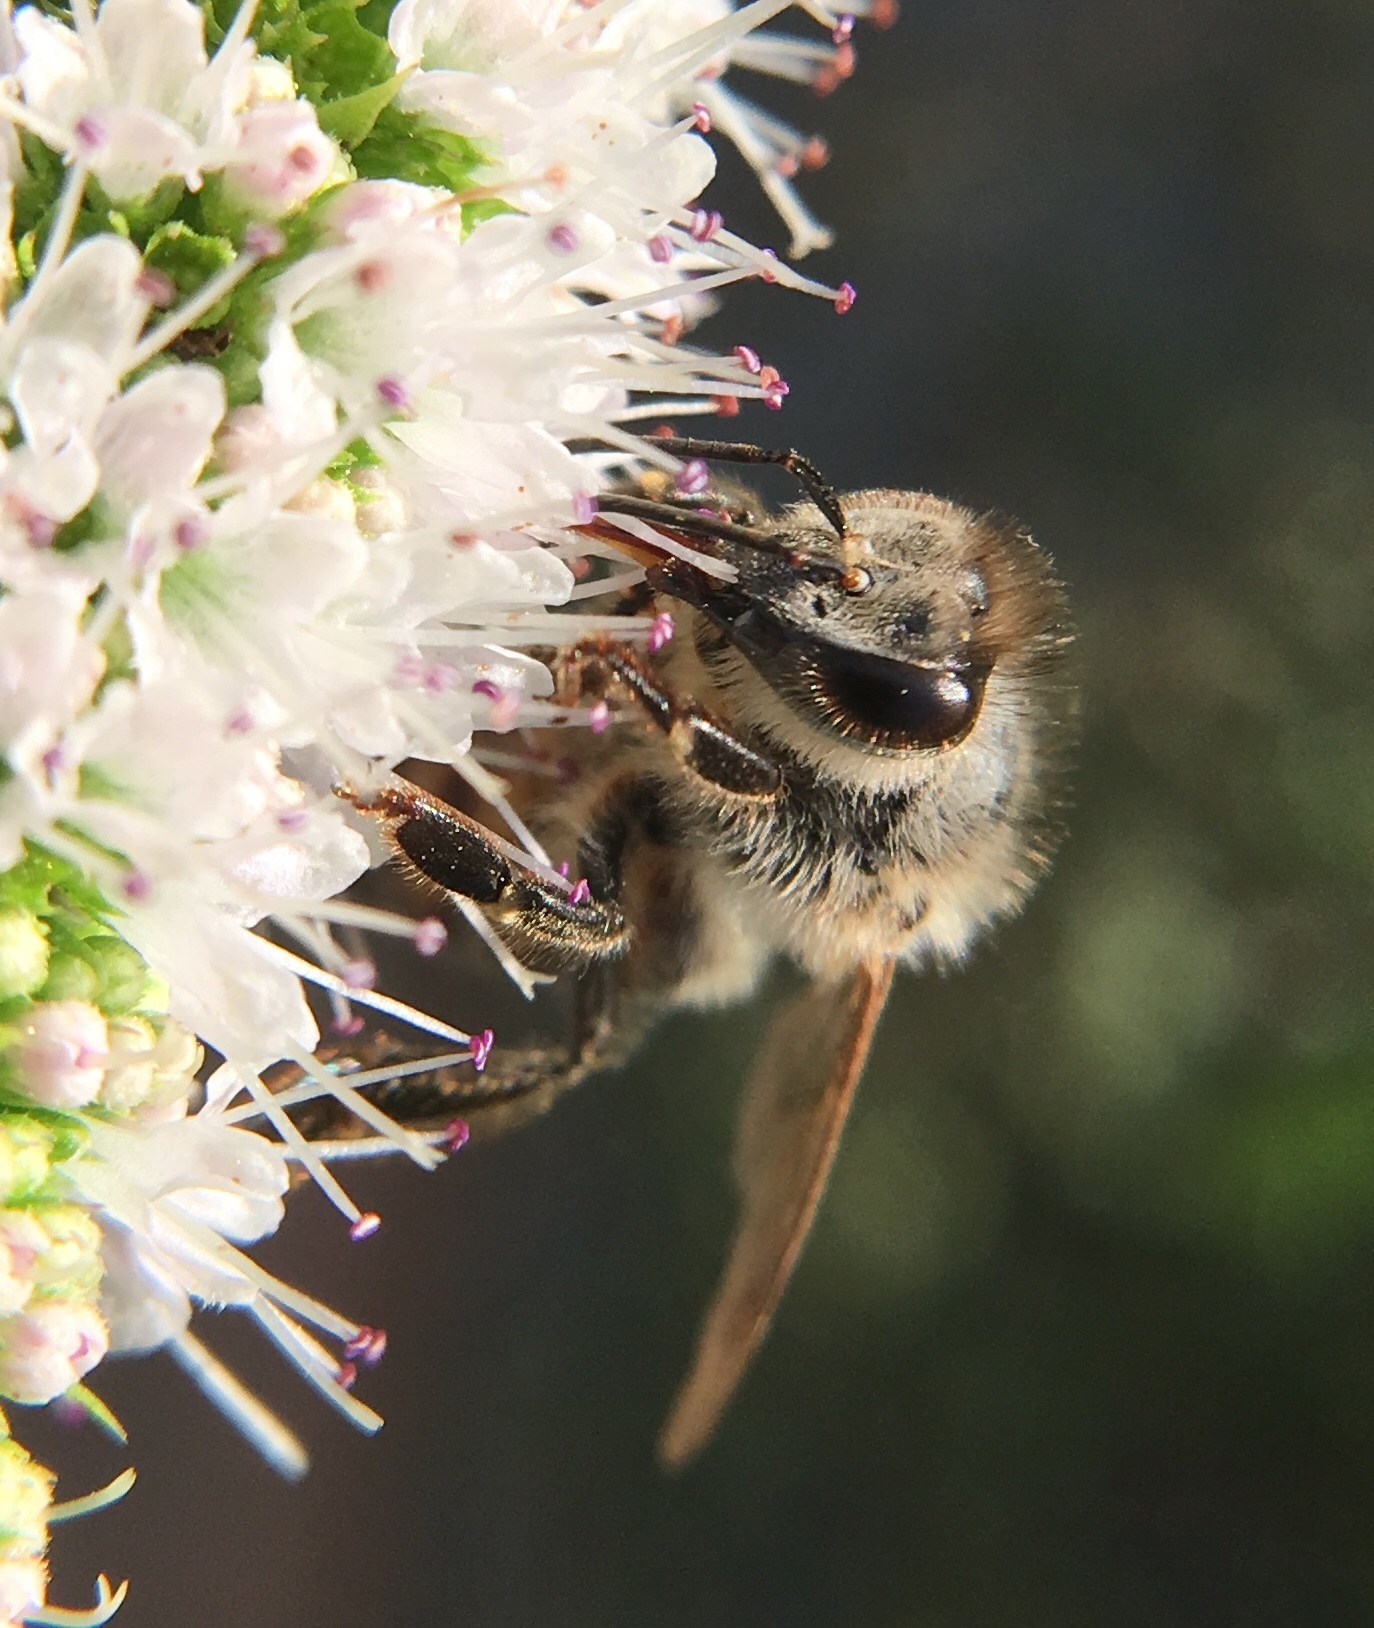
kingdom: Animalia
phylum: Arthropoda
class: Insecta
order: Hymenoptera
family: Apidae
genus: Apis
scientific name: Apis mellifera
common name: Honey bee
